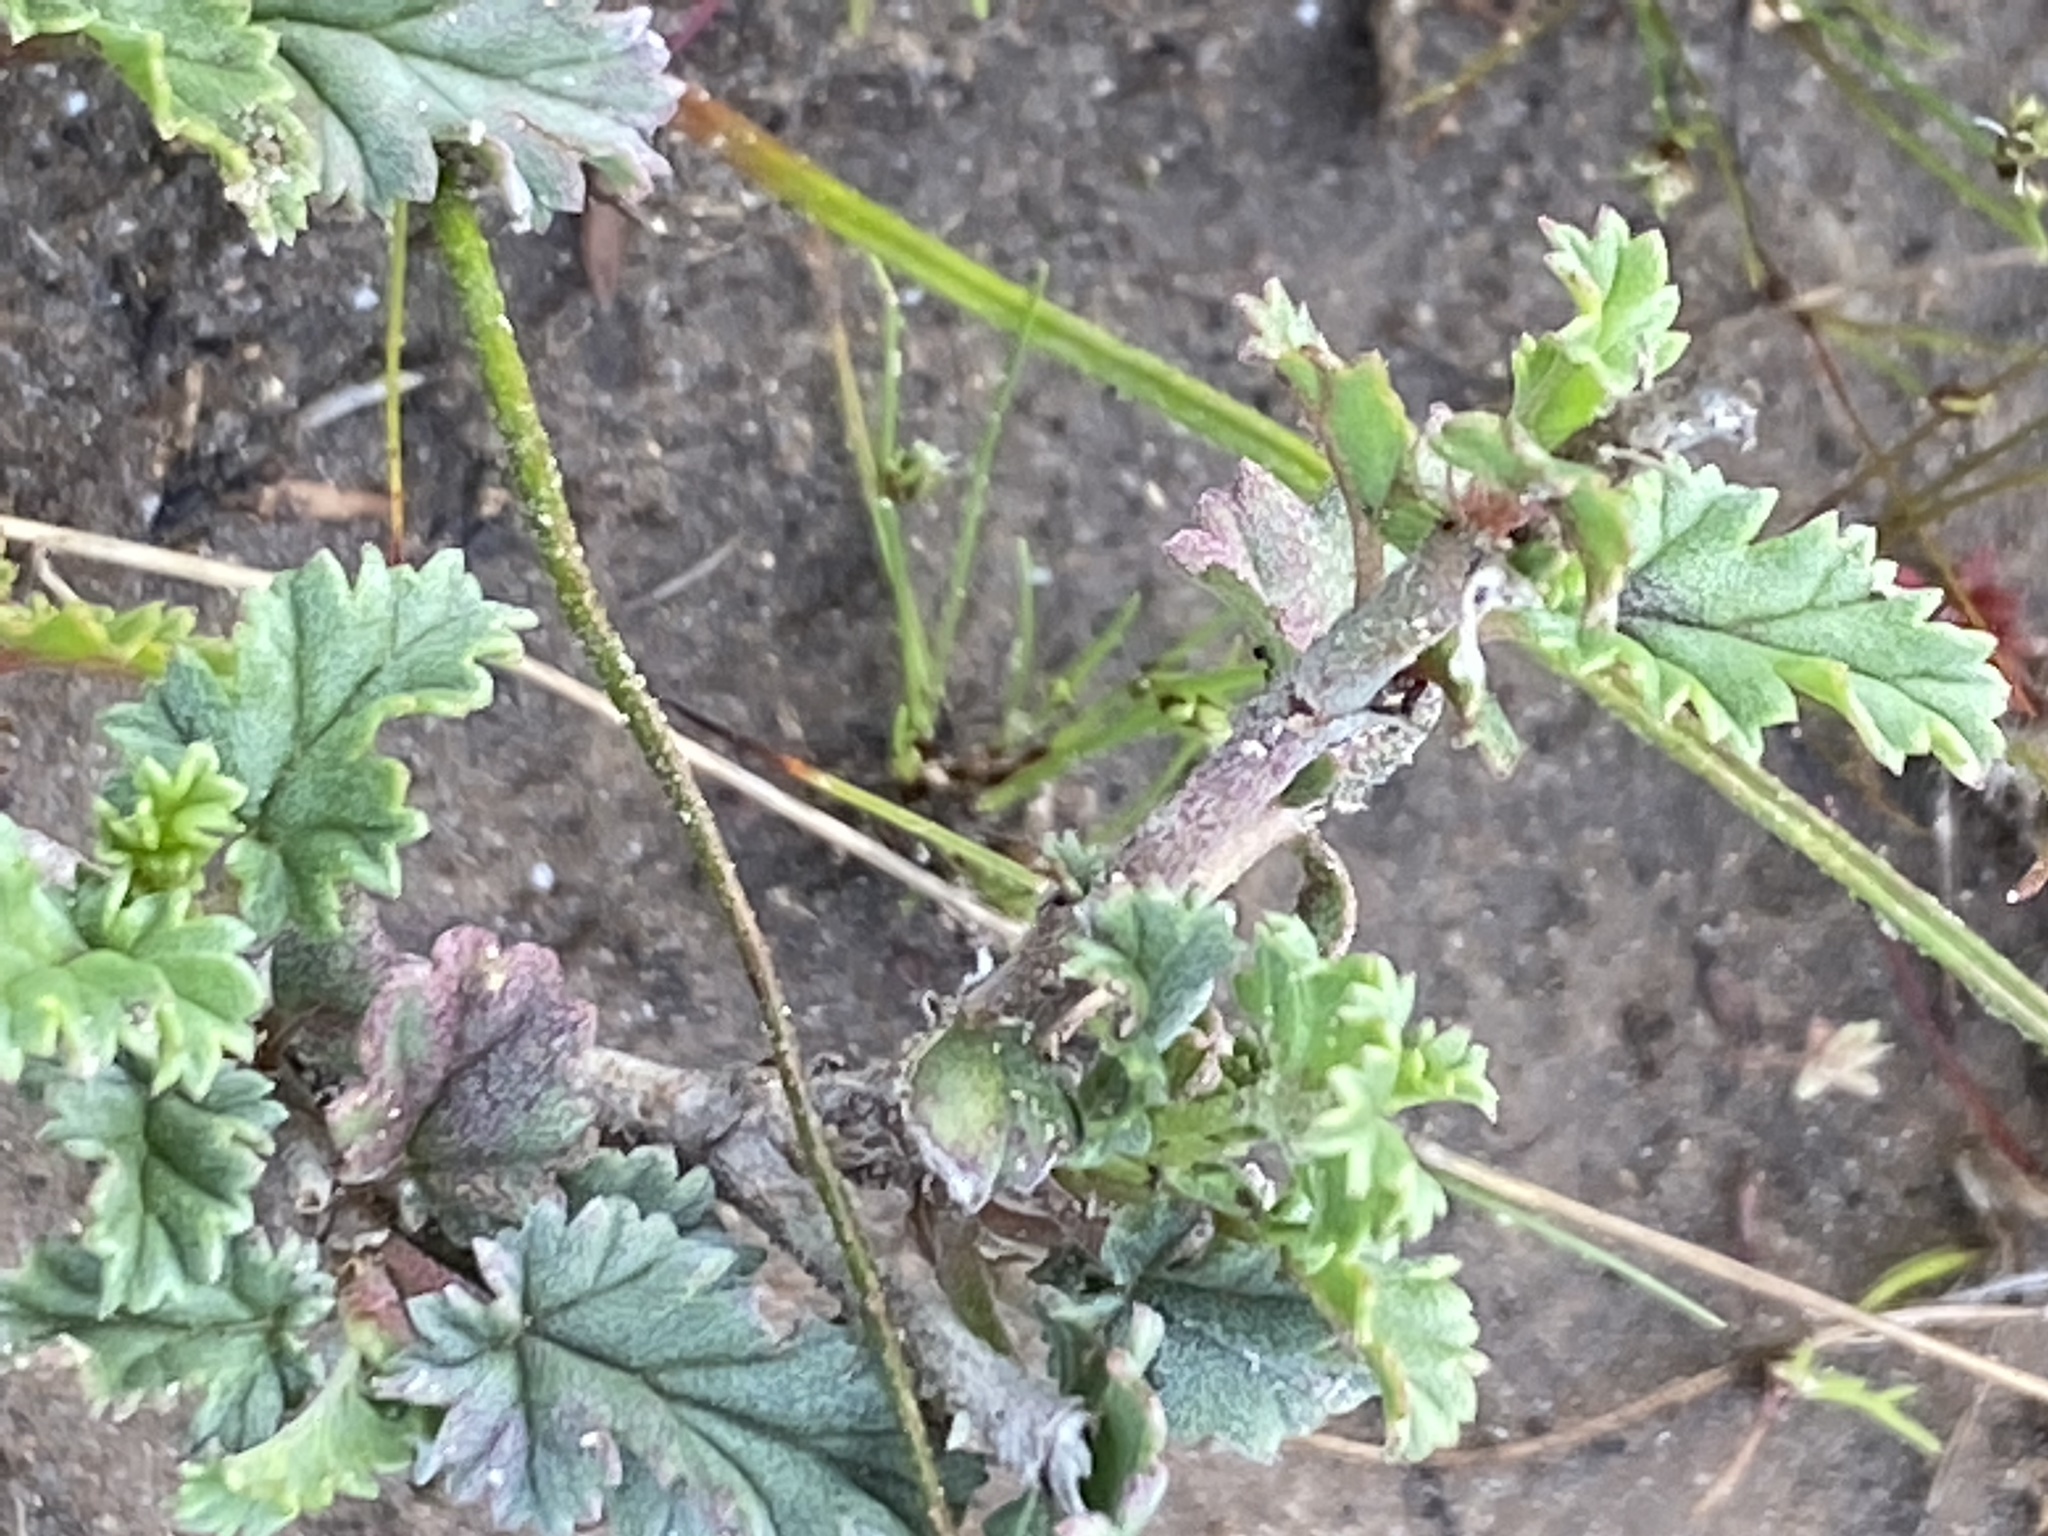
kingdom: Plantae
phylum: Tracheophyta
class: Magnoliopsida
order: Geraniales
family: Geraniaceae
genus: Pelargonium
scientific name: Pelargonium candicans
